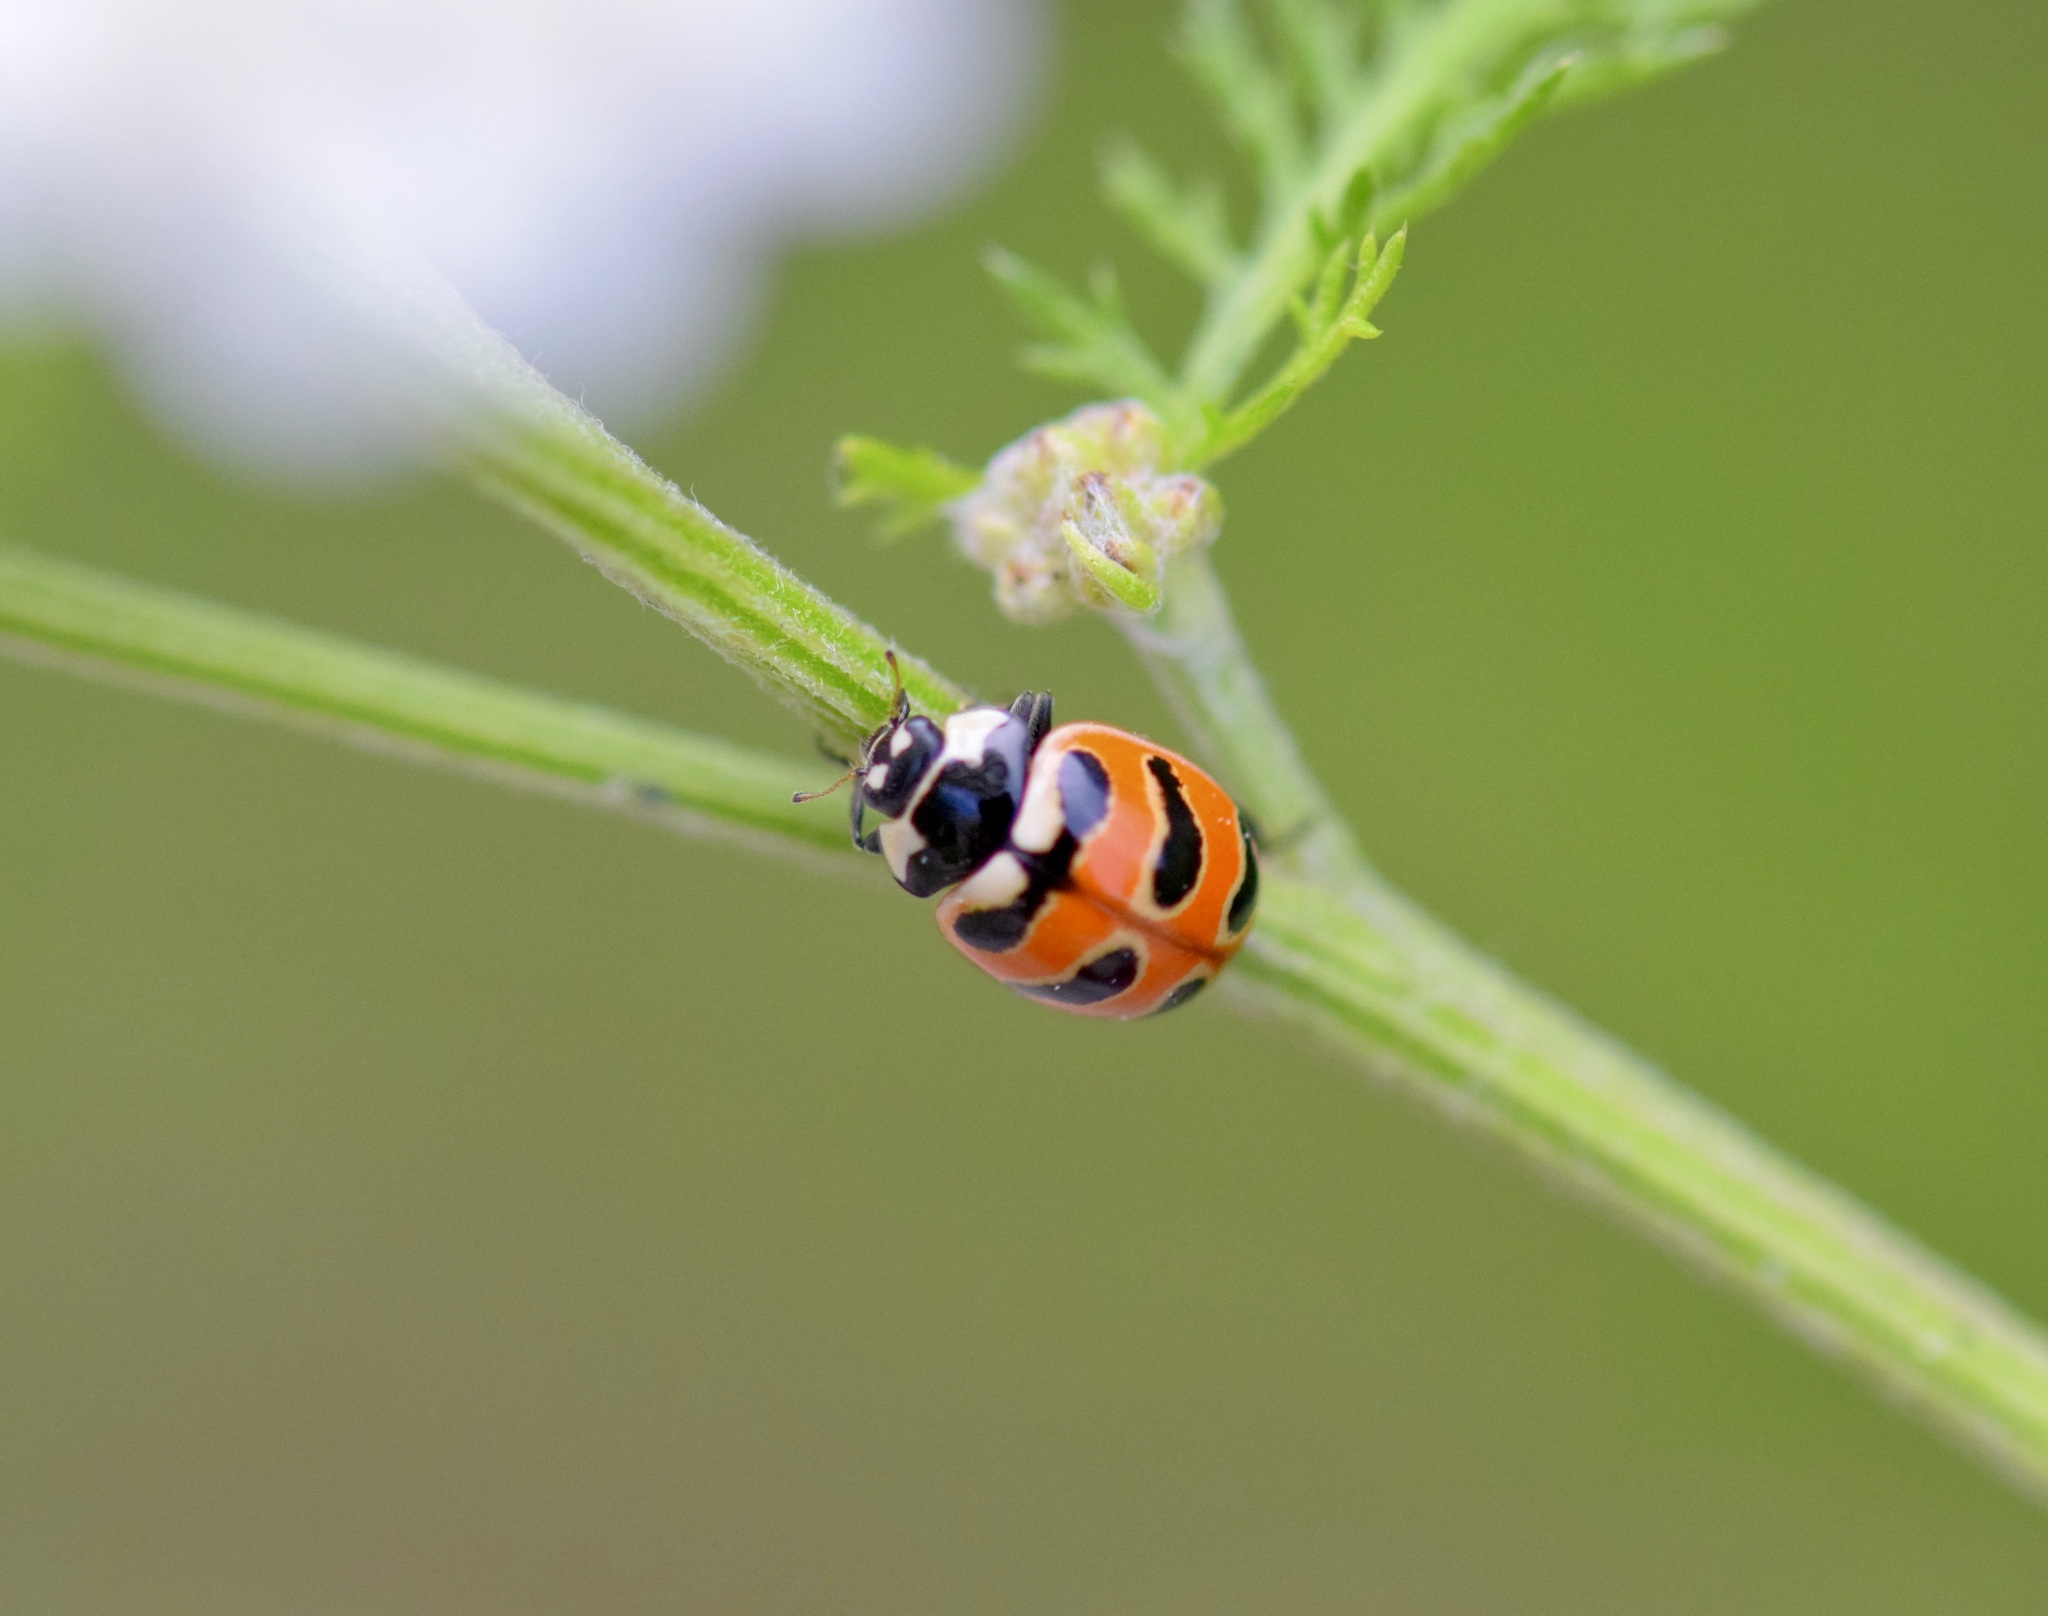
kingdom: Animalia
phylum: Arthropoda
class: Insecta
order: Coleoptera
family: Coccinellidae
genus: Coccinella
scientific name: Coccinella trifasciata
